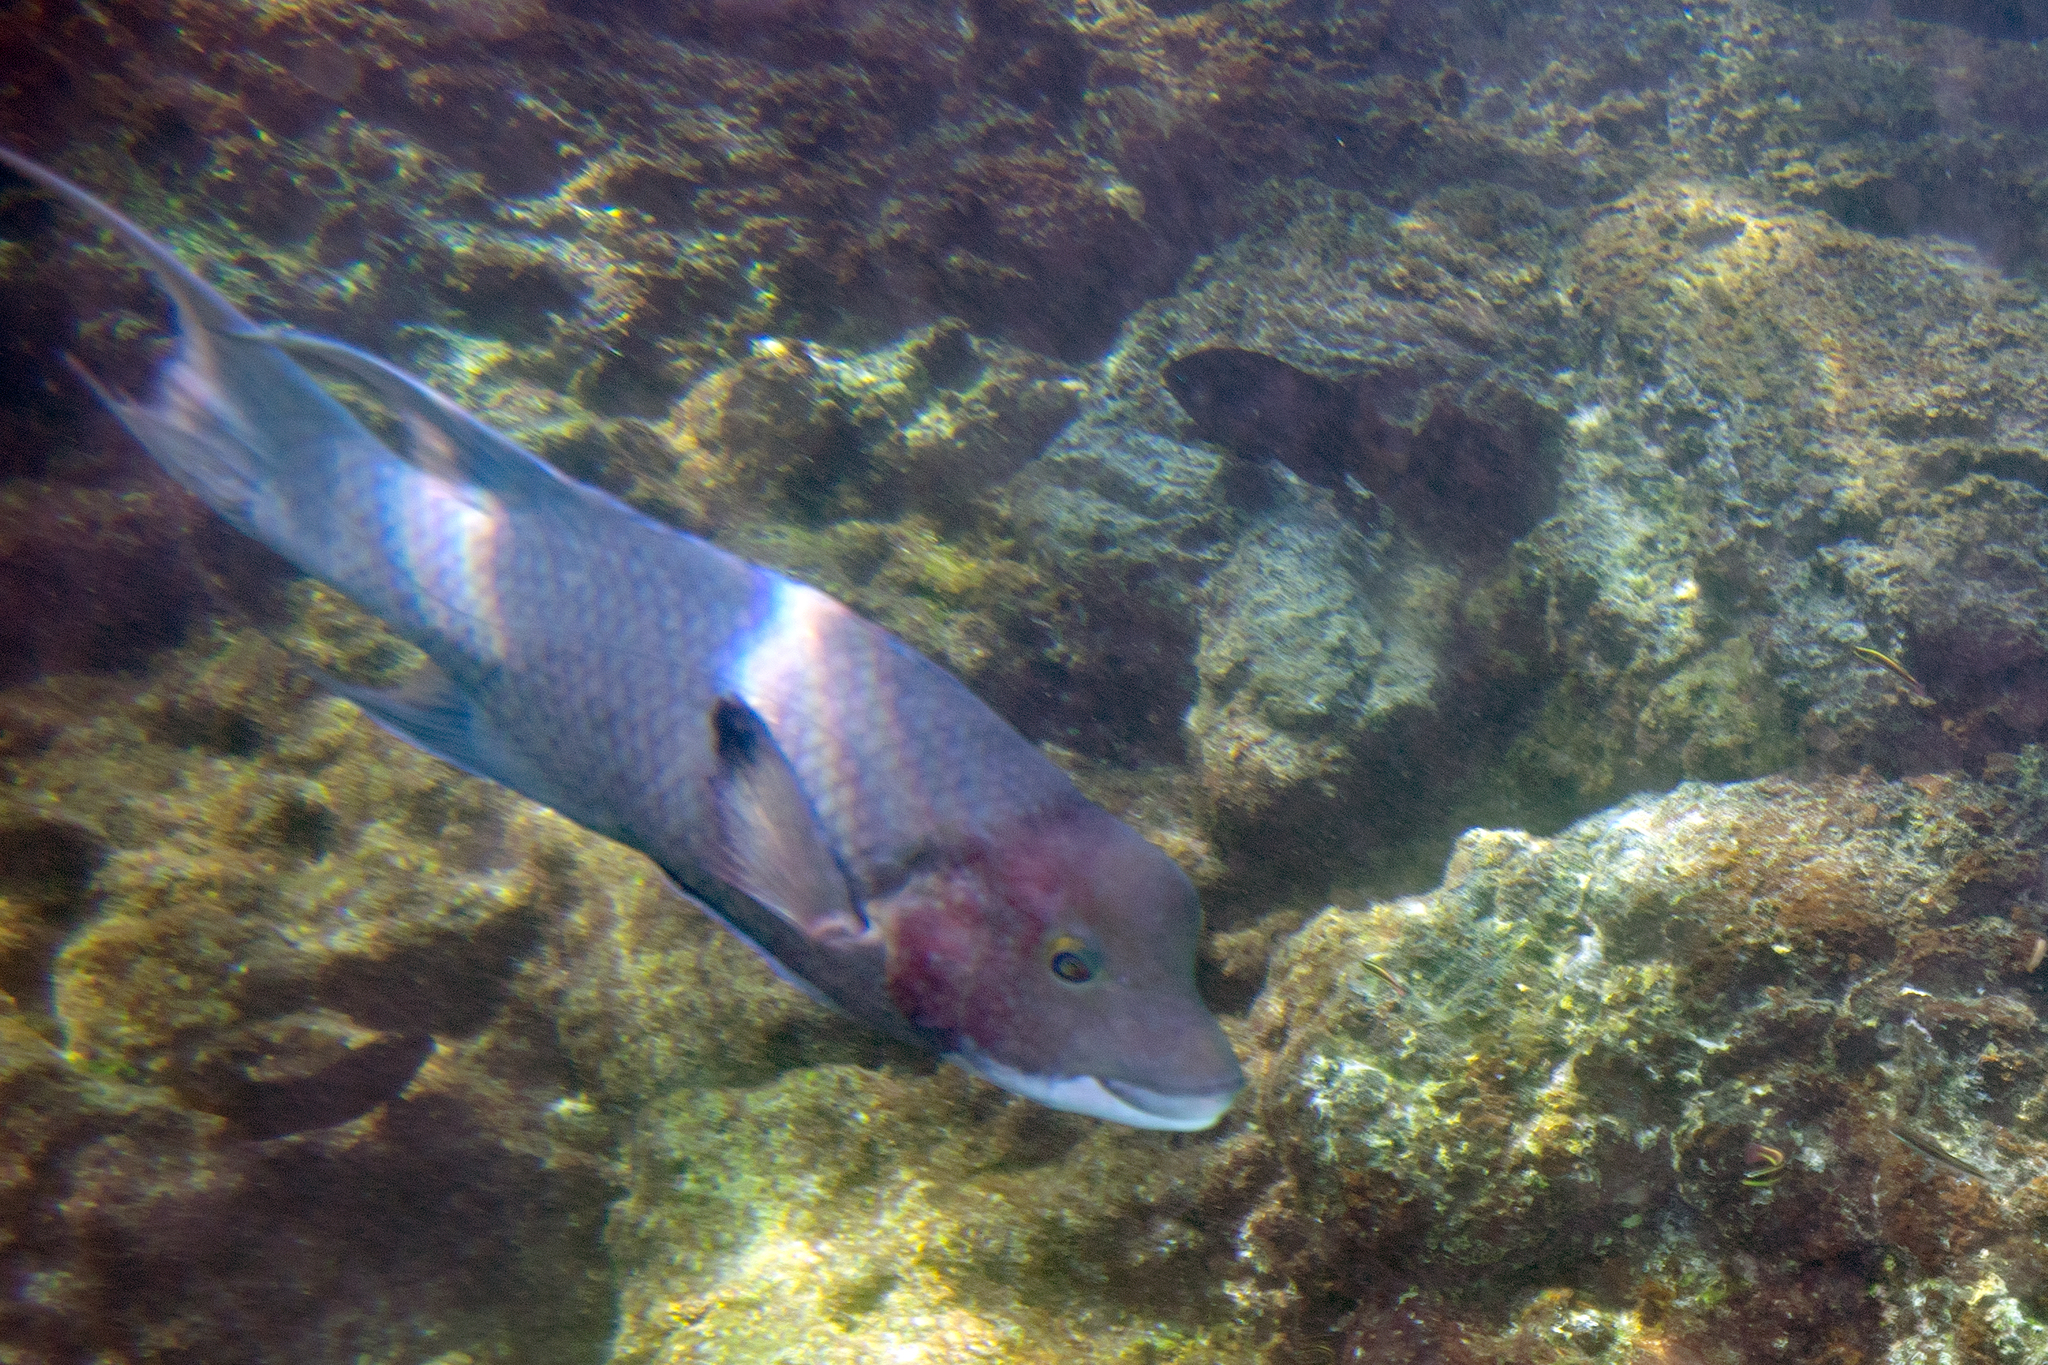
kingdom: Animalia
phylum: Chordata
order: Perciformes
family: Labridae
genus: Bodianus
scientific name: Bodianus diplotaenia
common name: Mexican hogfish
